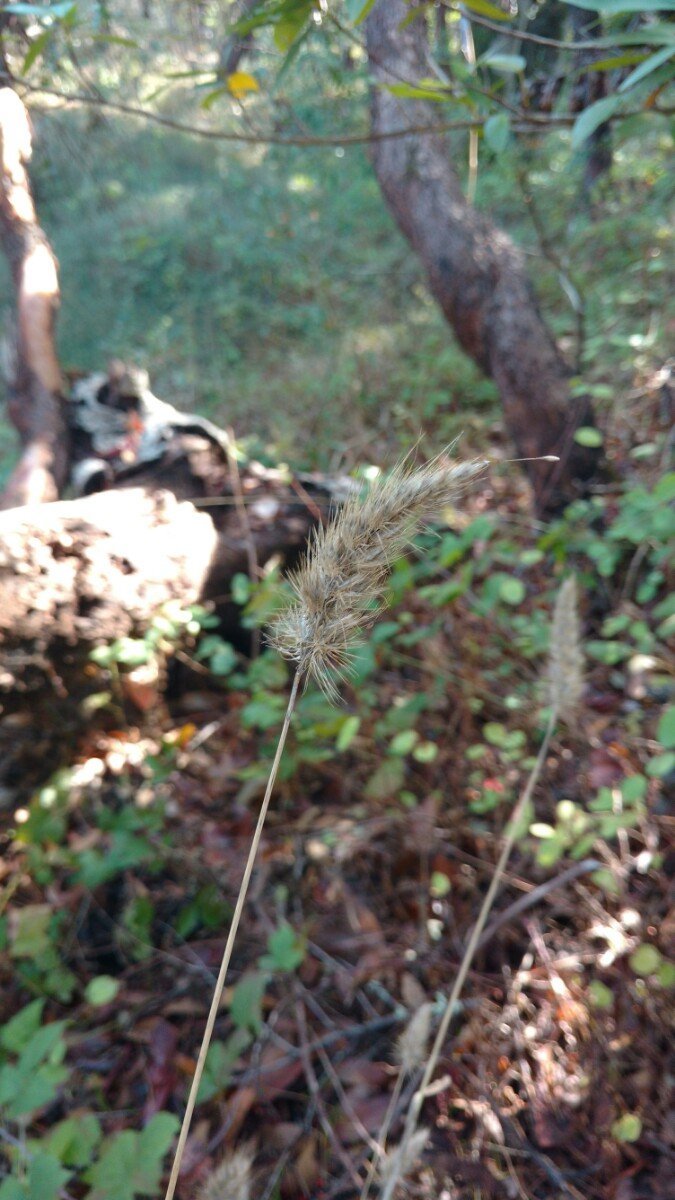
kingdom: Plantae
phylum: Tracheophyta
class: Liliopsida
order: Poales
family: Poaceae
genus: Cynosurus
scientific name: Cynosurus echinatus
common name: Rough dog's-tail
